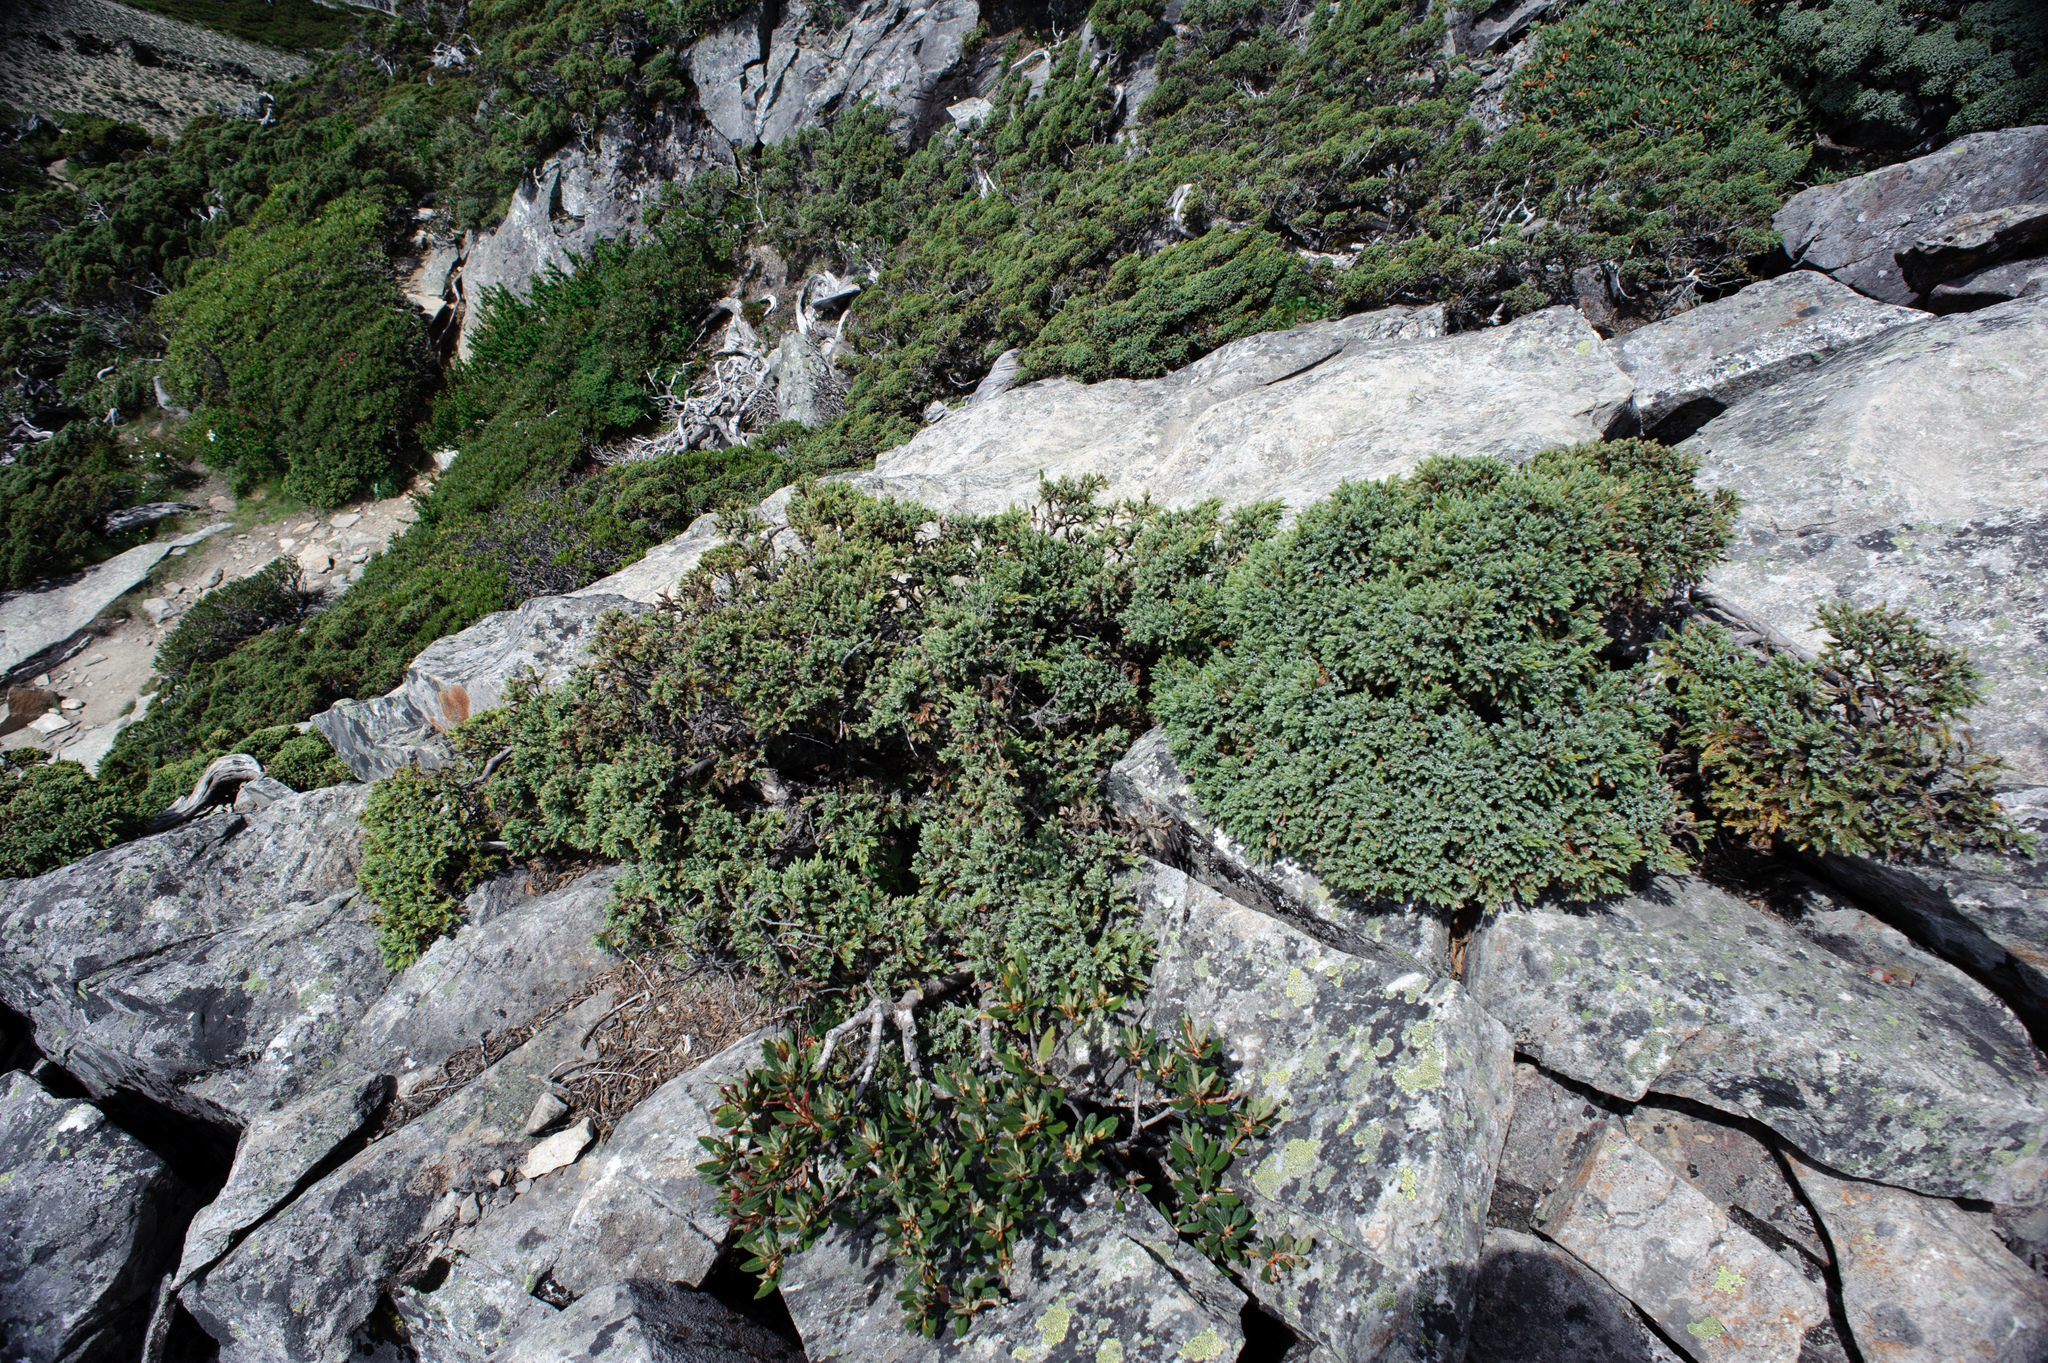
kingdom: Plantae
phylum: Tracheophyta
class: Pinopsida
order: Pinales
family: Cupressaceae
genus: Juniperus
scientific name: Juniperus squamata
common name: Flaky juniper
